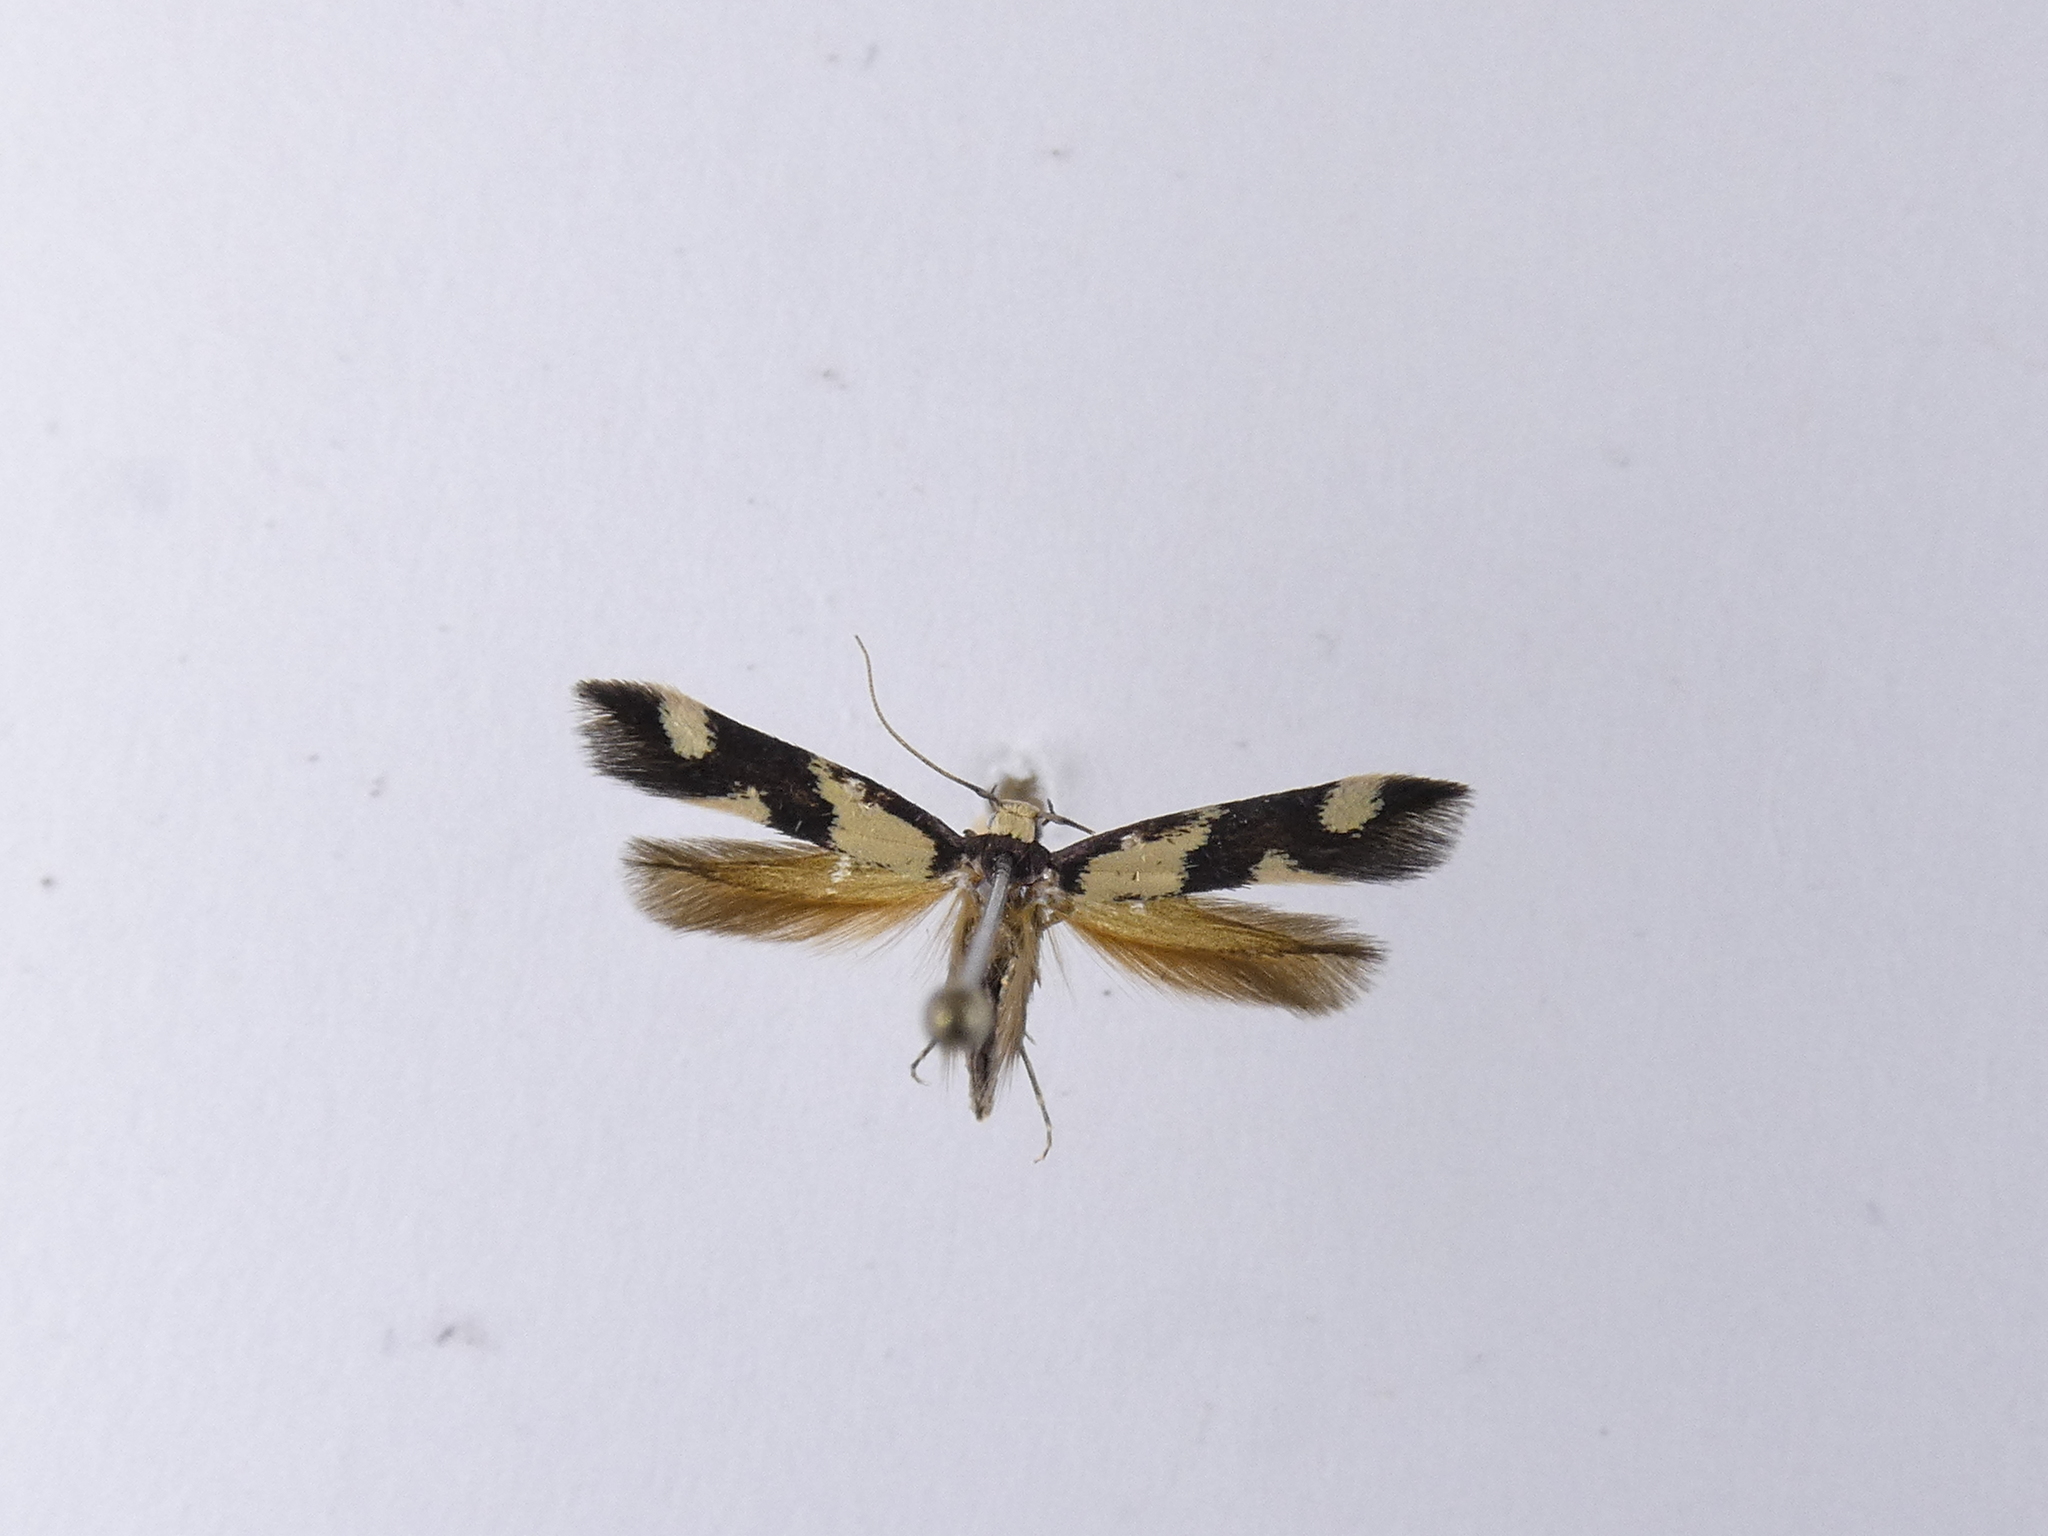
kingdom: Animalia
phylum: Arthropoda
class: Insecta
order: Lepidoptera
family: Tineidae
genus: Opogona
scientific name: Opogona comptella
